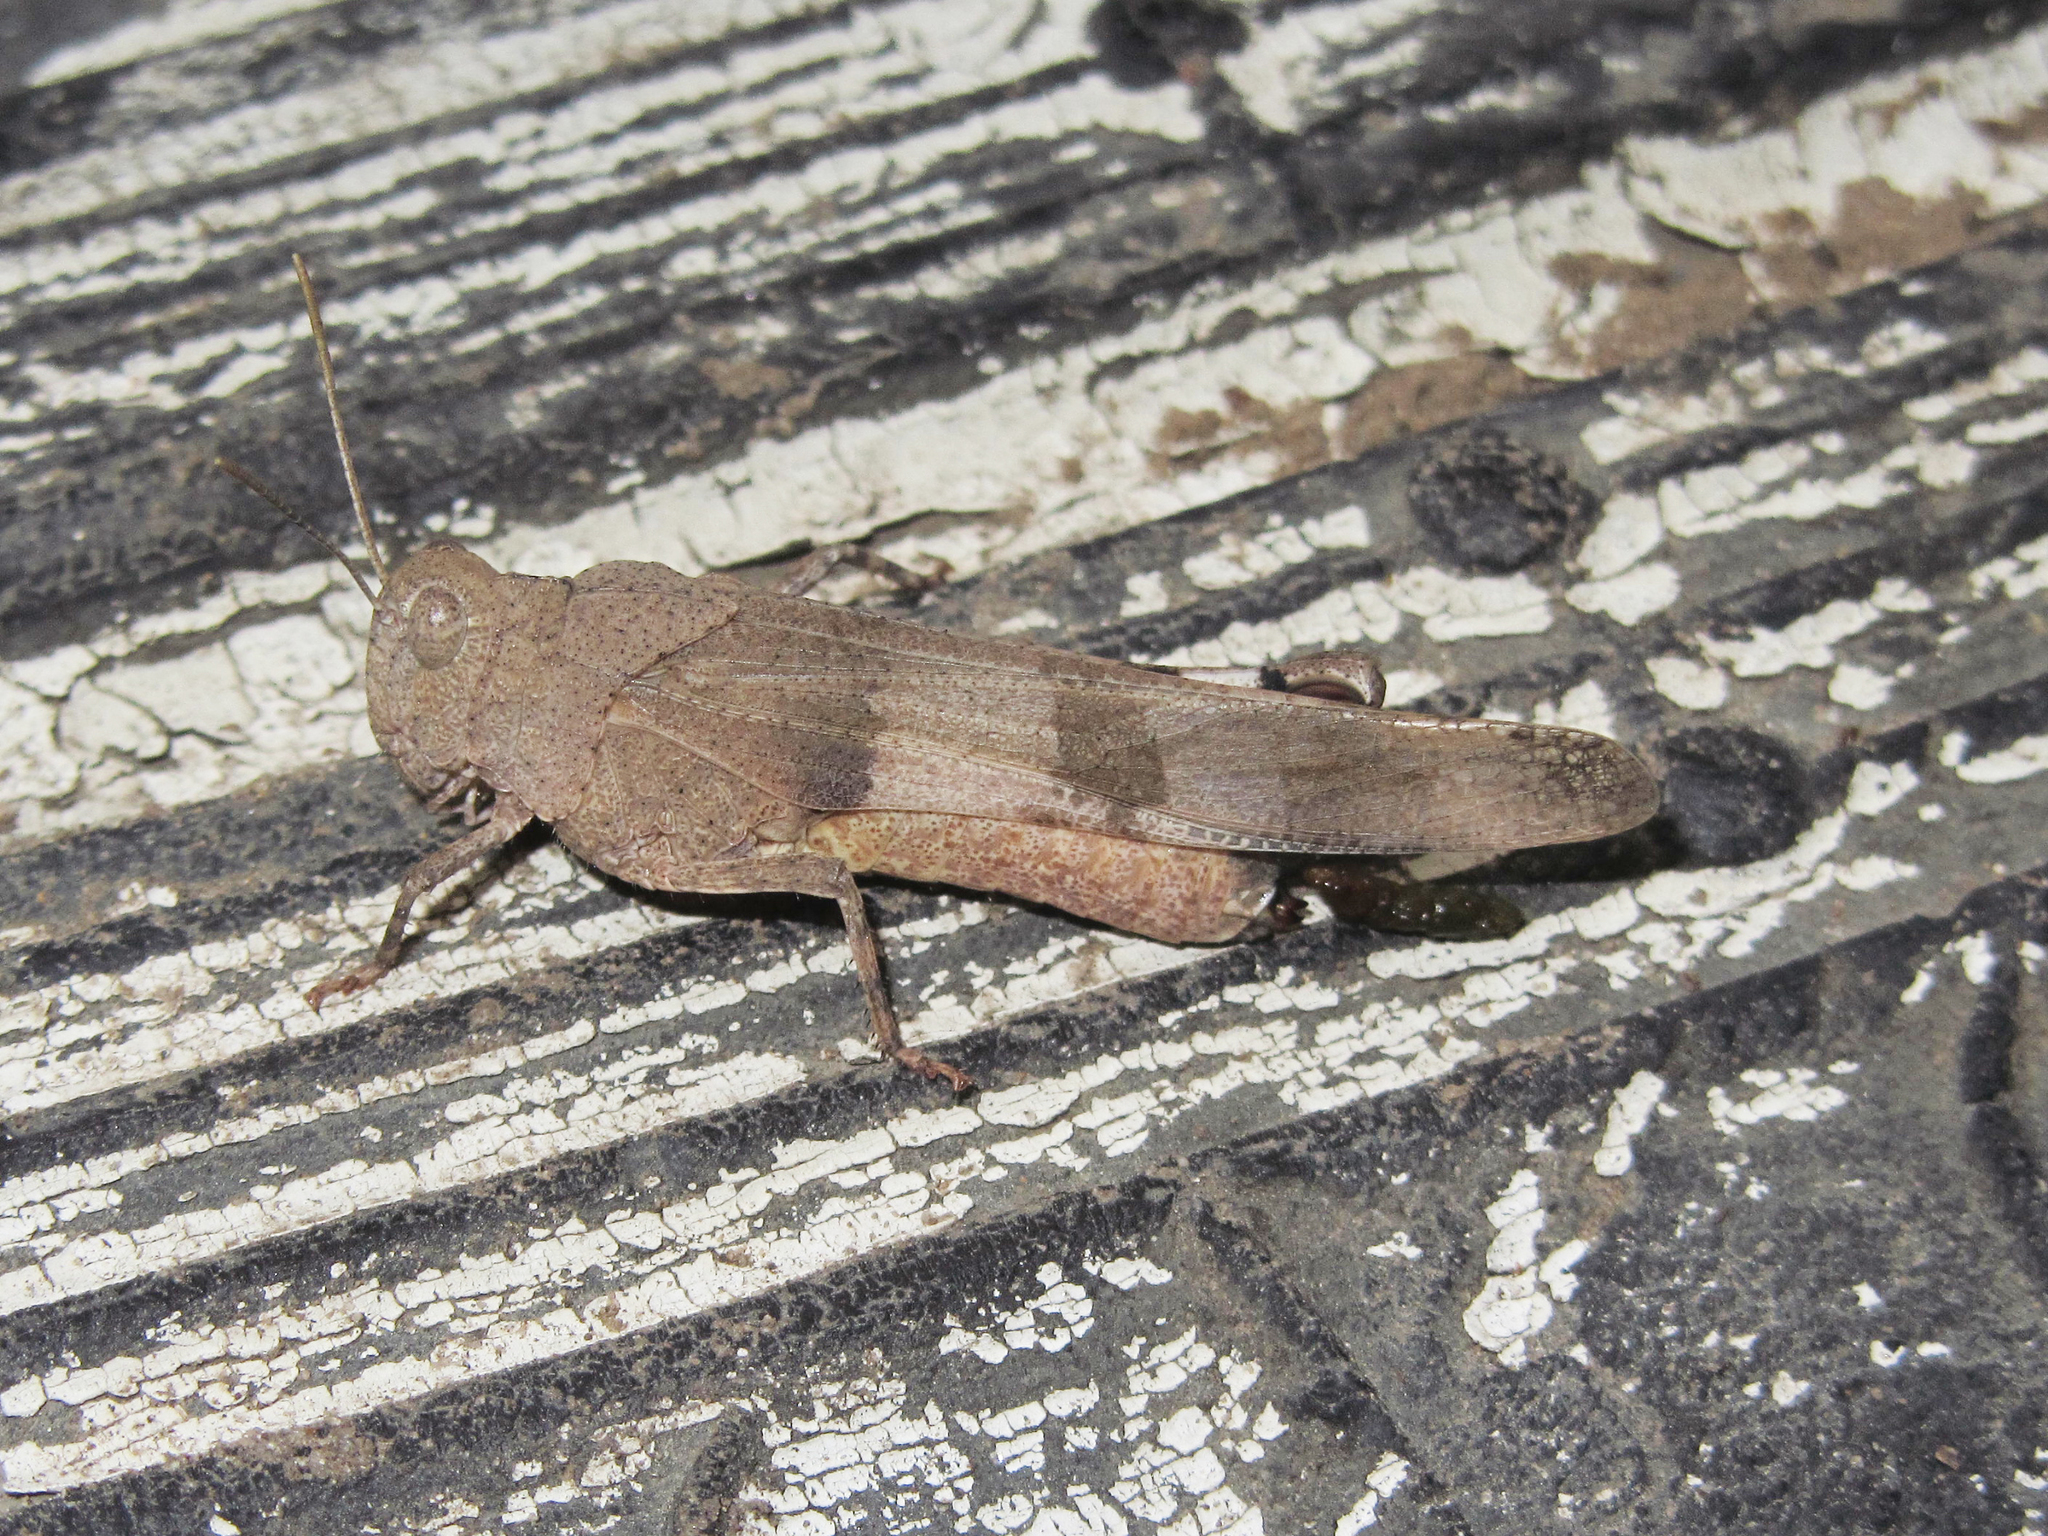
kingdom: Animalia
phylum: Arthropoda
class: Insecta
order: Orthoptera
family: Acrididae
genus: Oedipoda
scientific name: Oedipoda caerulescens
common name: Blue-winged grasshopper
